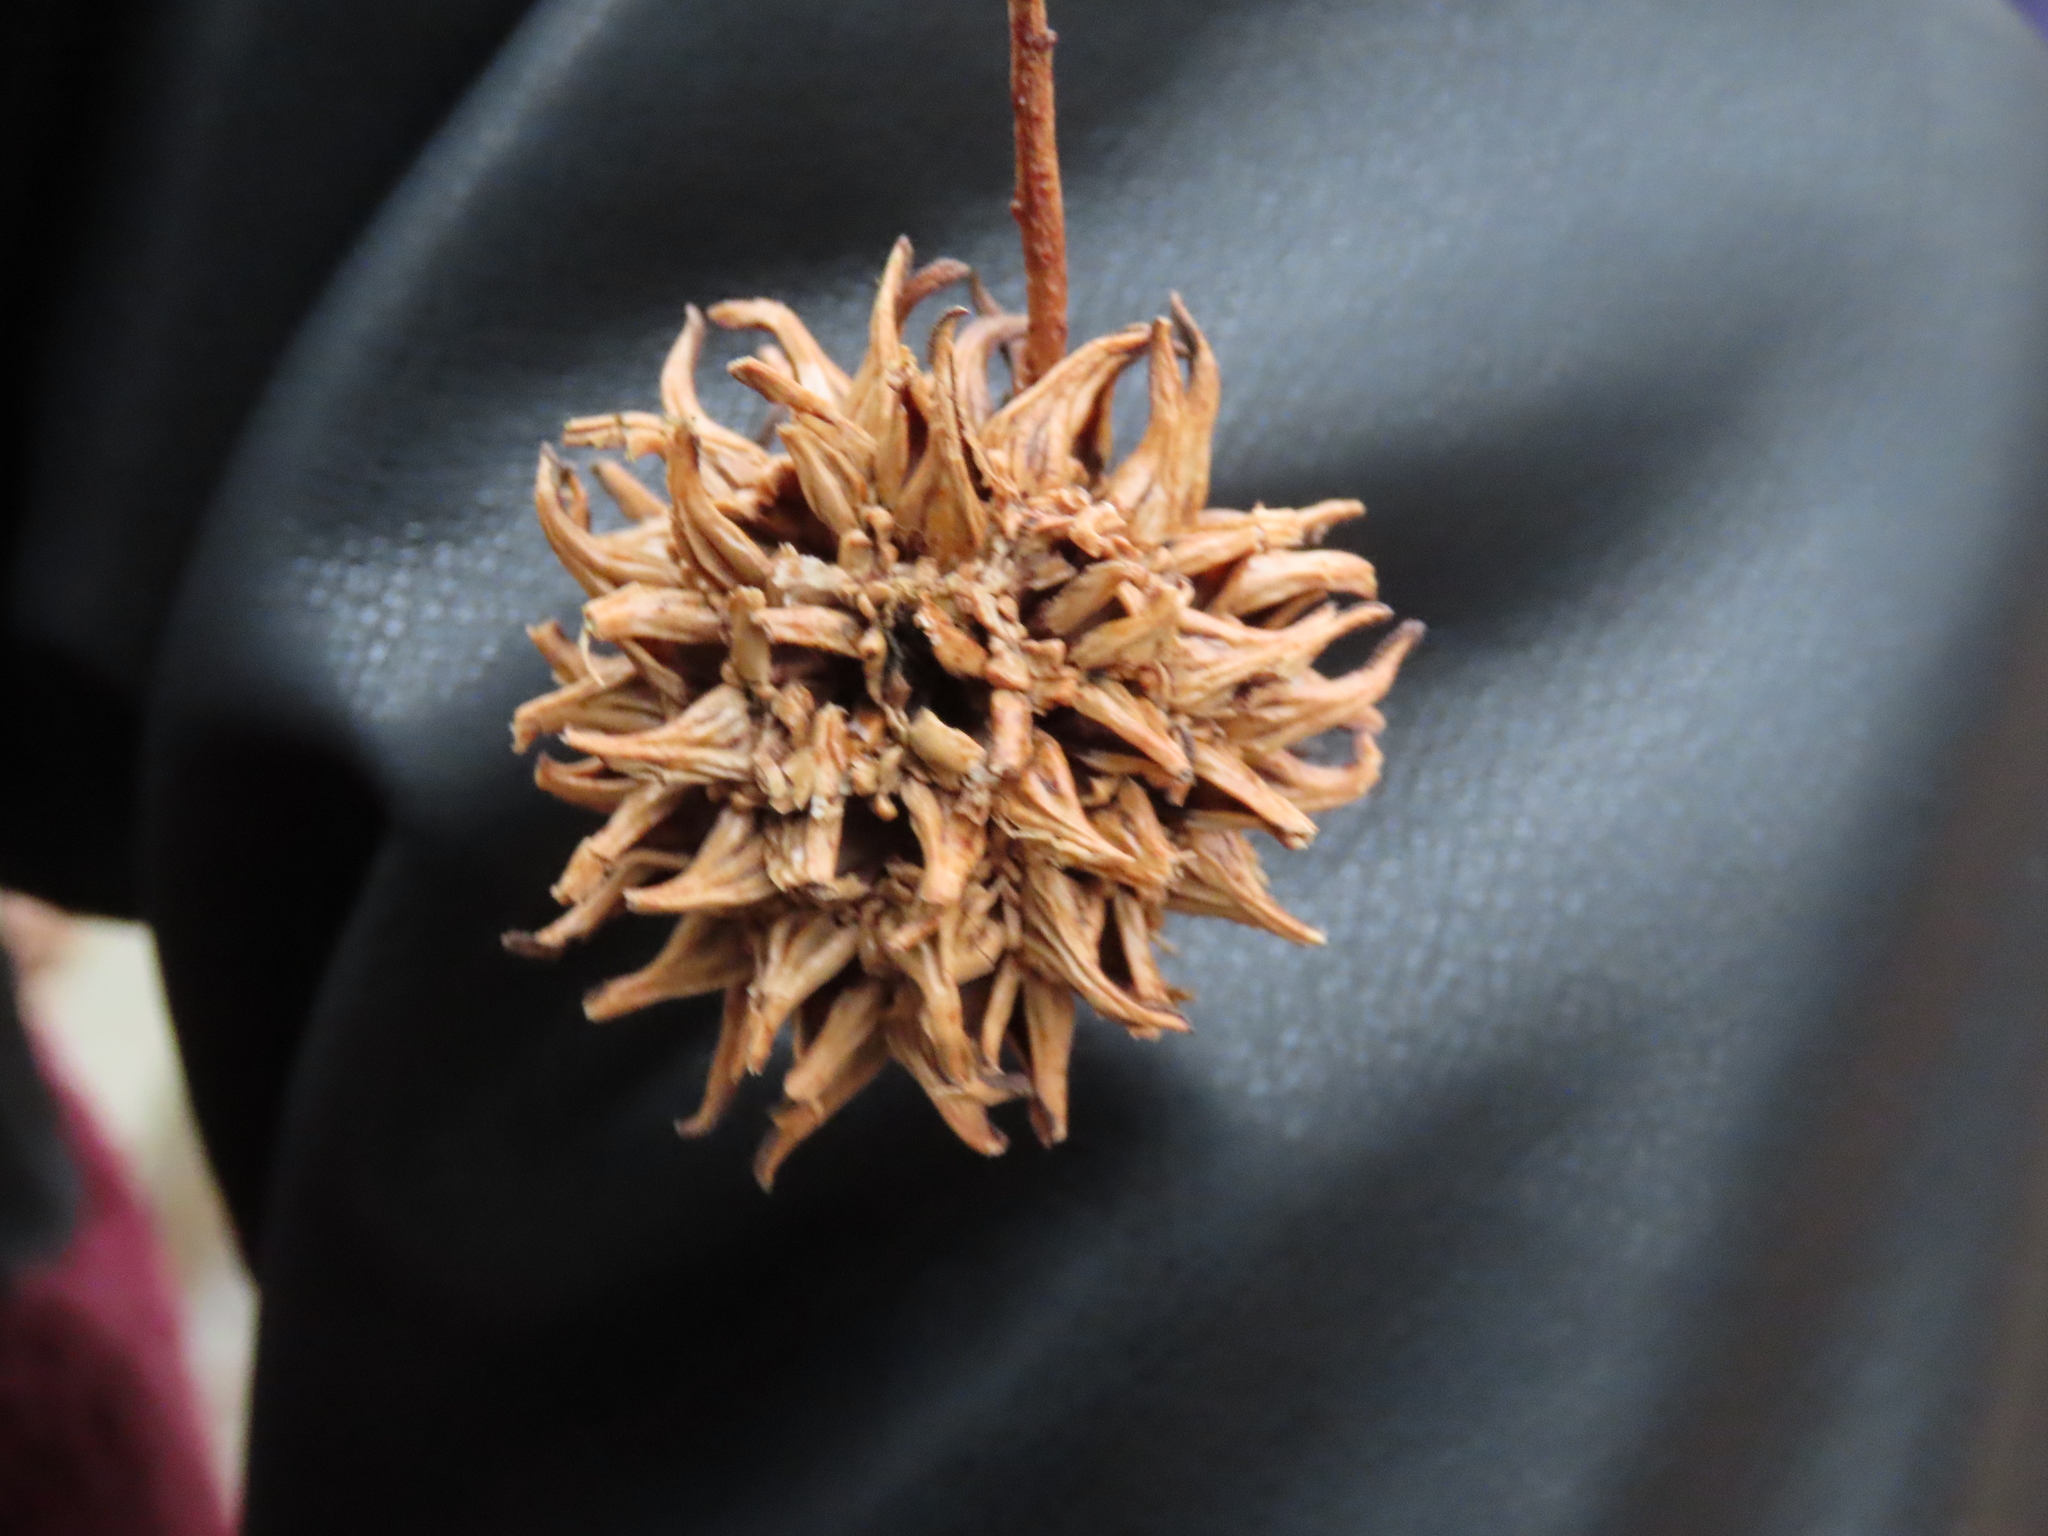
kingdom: Plantae
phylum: Tracheophyta
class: Magnoliopsida
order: Saxifragales
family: Altingiaceae
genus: Liquidambar
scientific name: Liquidambar styraciflua
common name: Sweet gum
